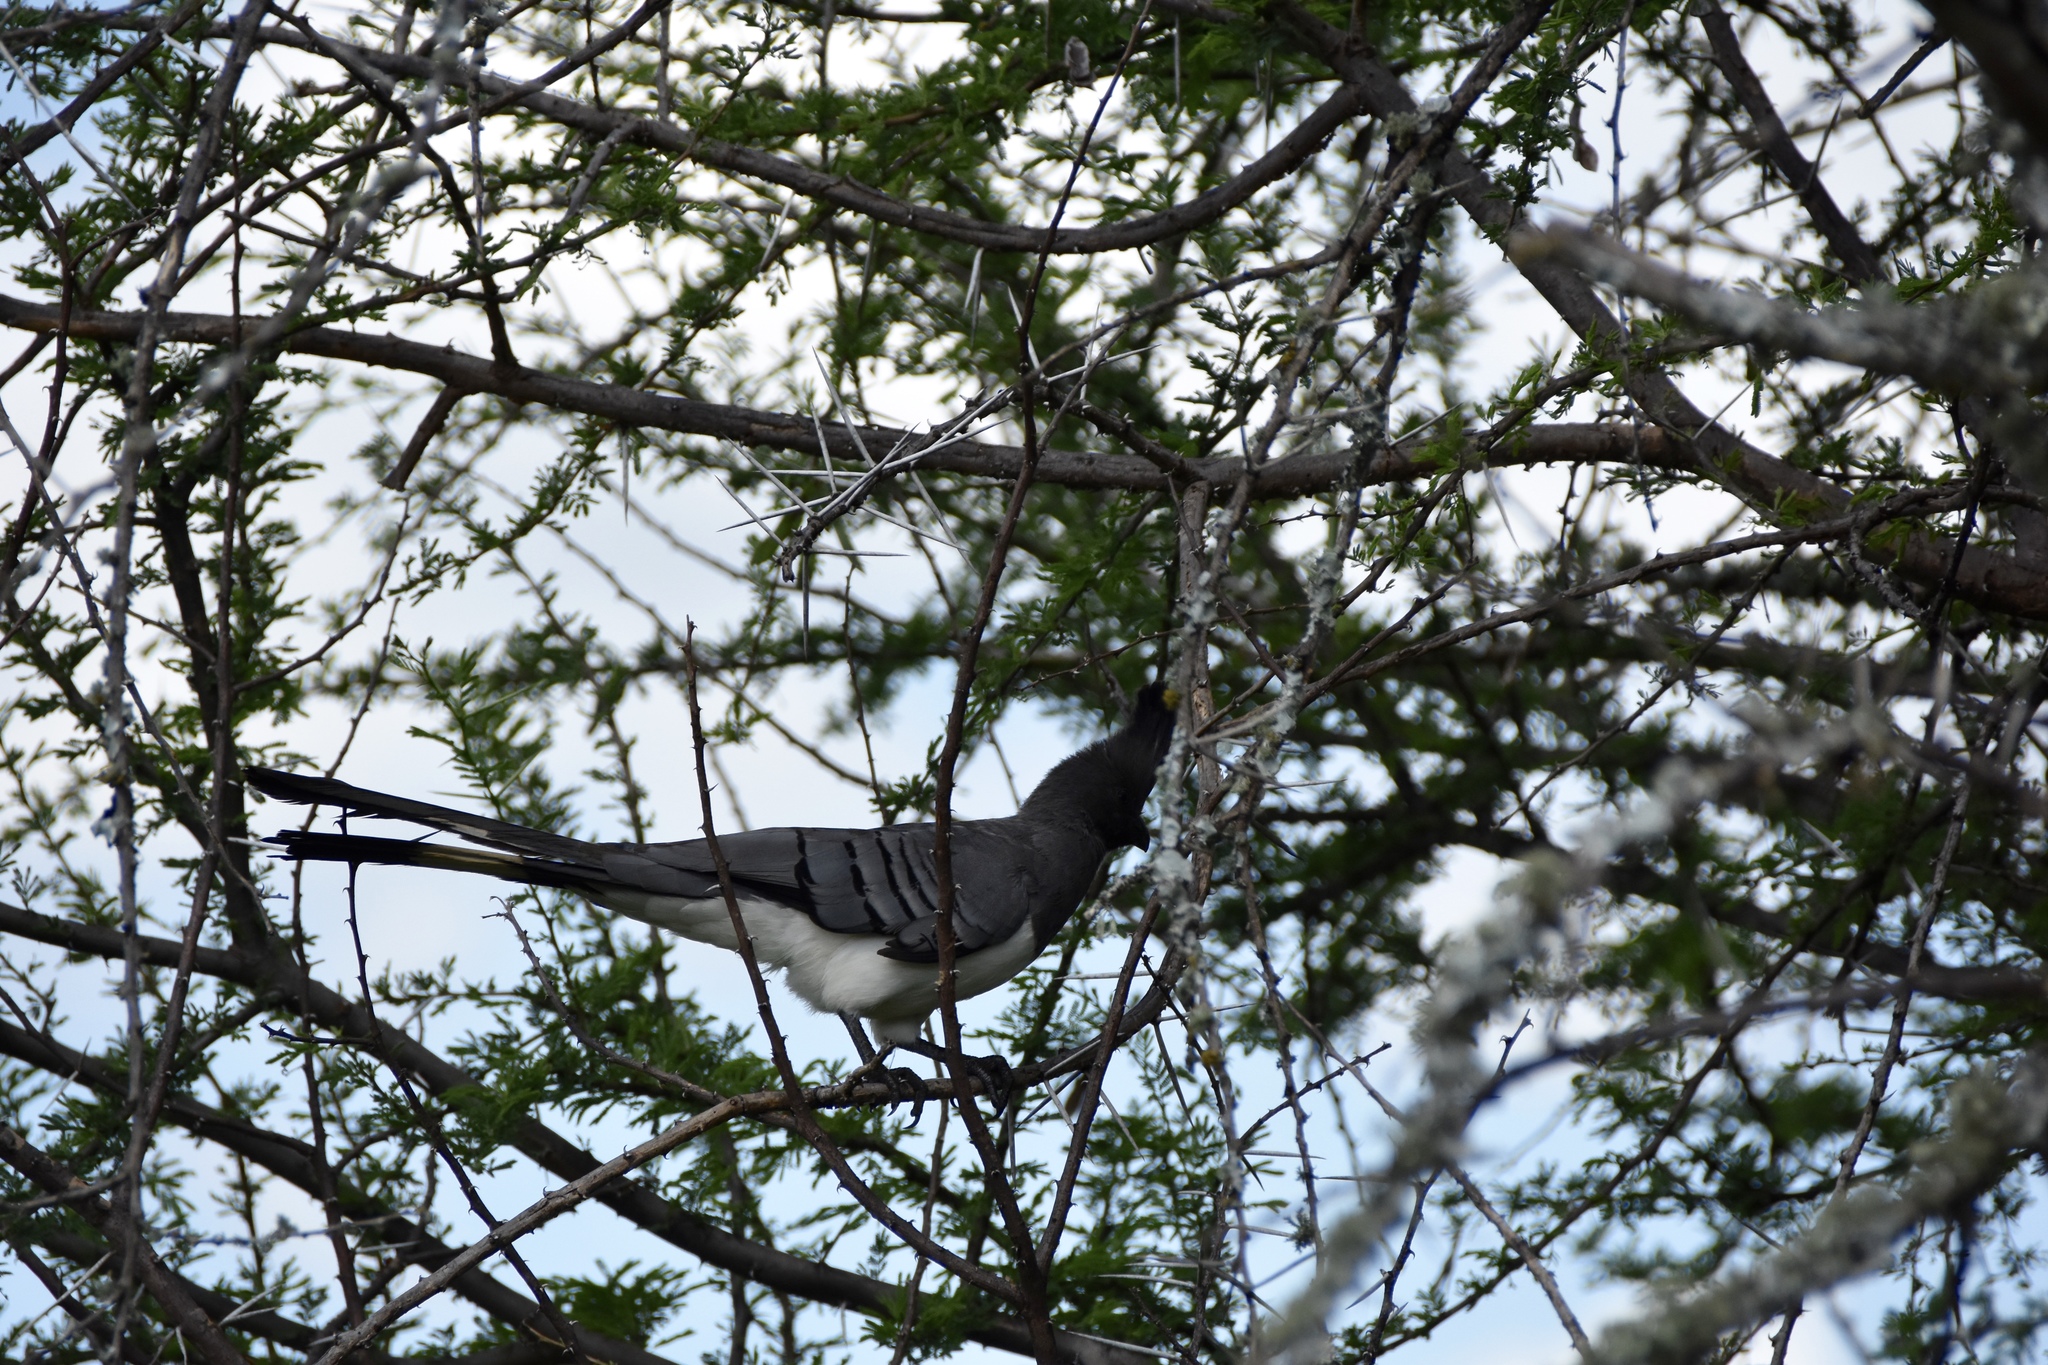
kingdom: Animalia
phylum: Chordata
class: Aves
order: Musophagiformes
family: Musophagidae
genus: Corythaixoides
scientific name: Corythaixoides leucogaster
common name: White-bellied go-away-bird
